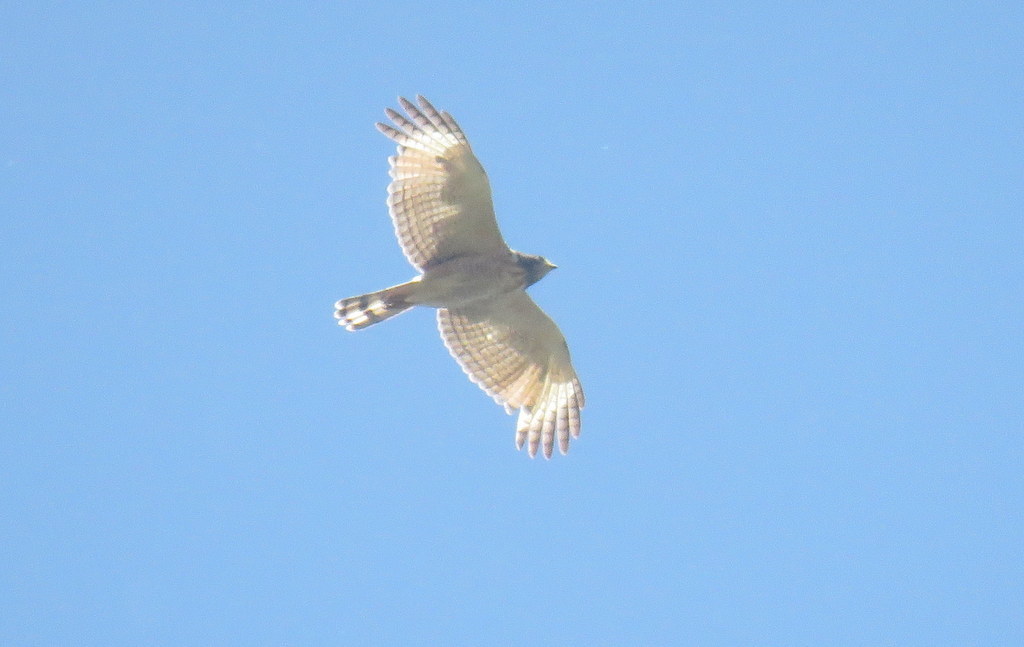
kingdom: Animalia
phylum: Chordata
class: Aves
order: Accipitriformes
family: Accipitridae
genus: Rupornis
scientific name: Rupornis magnirostris
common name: Roadside hawk
